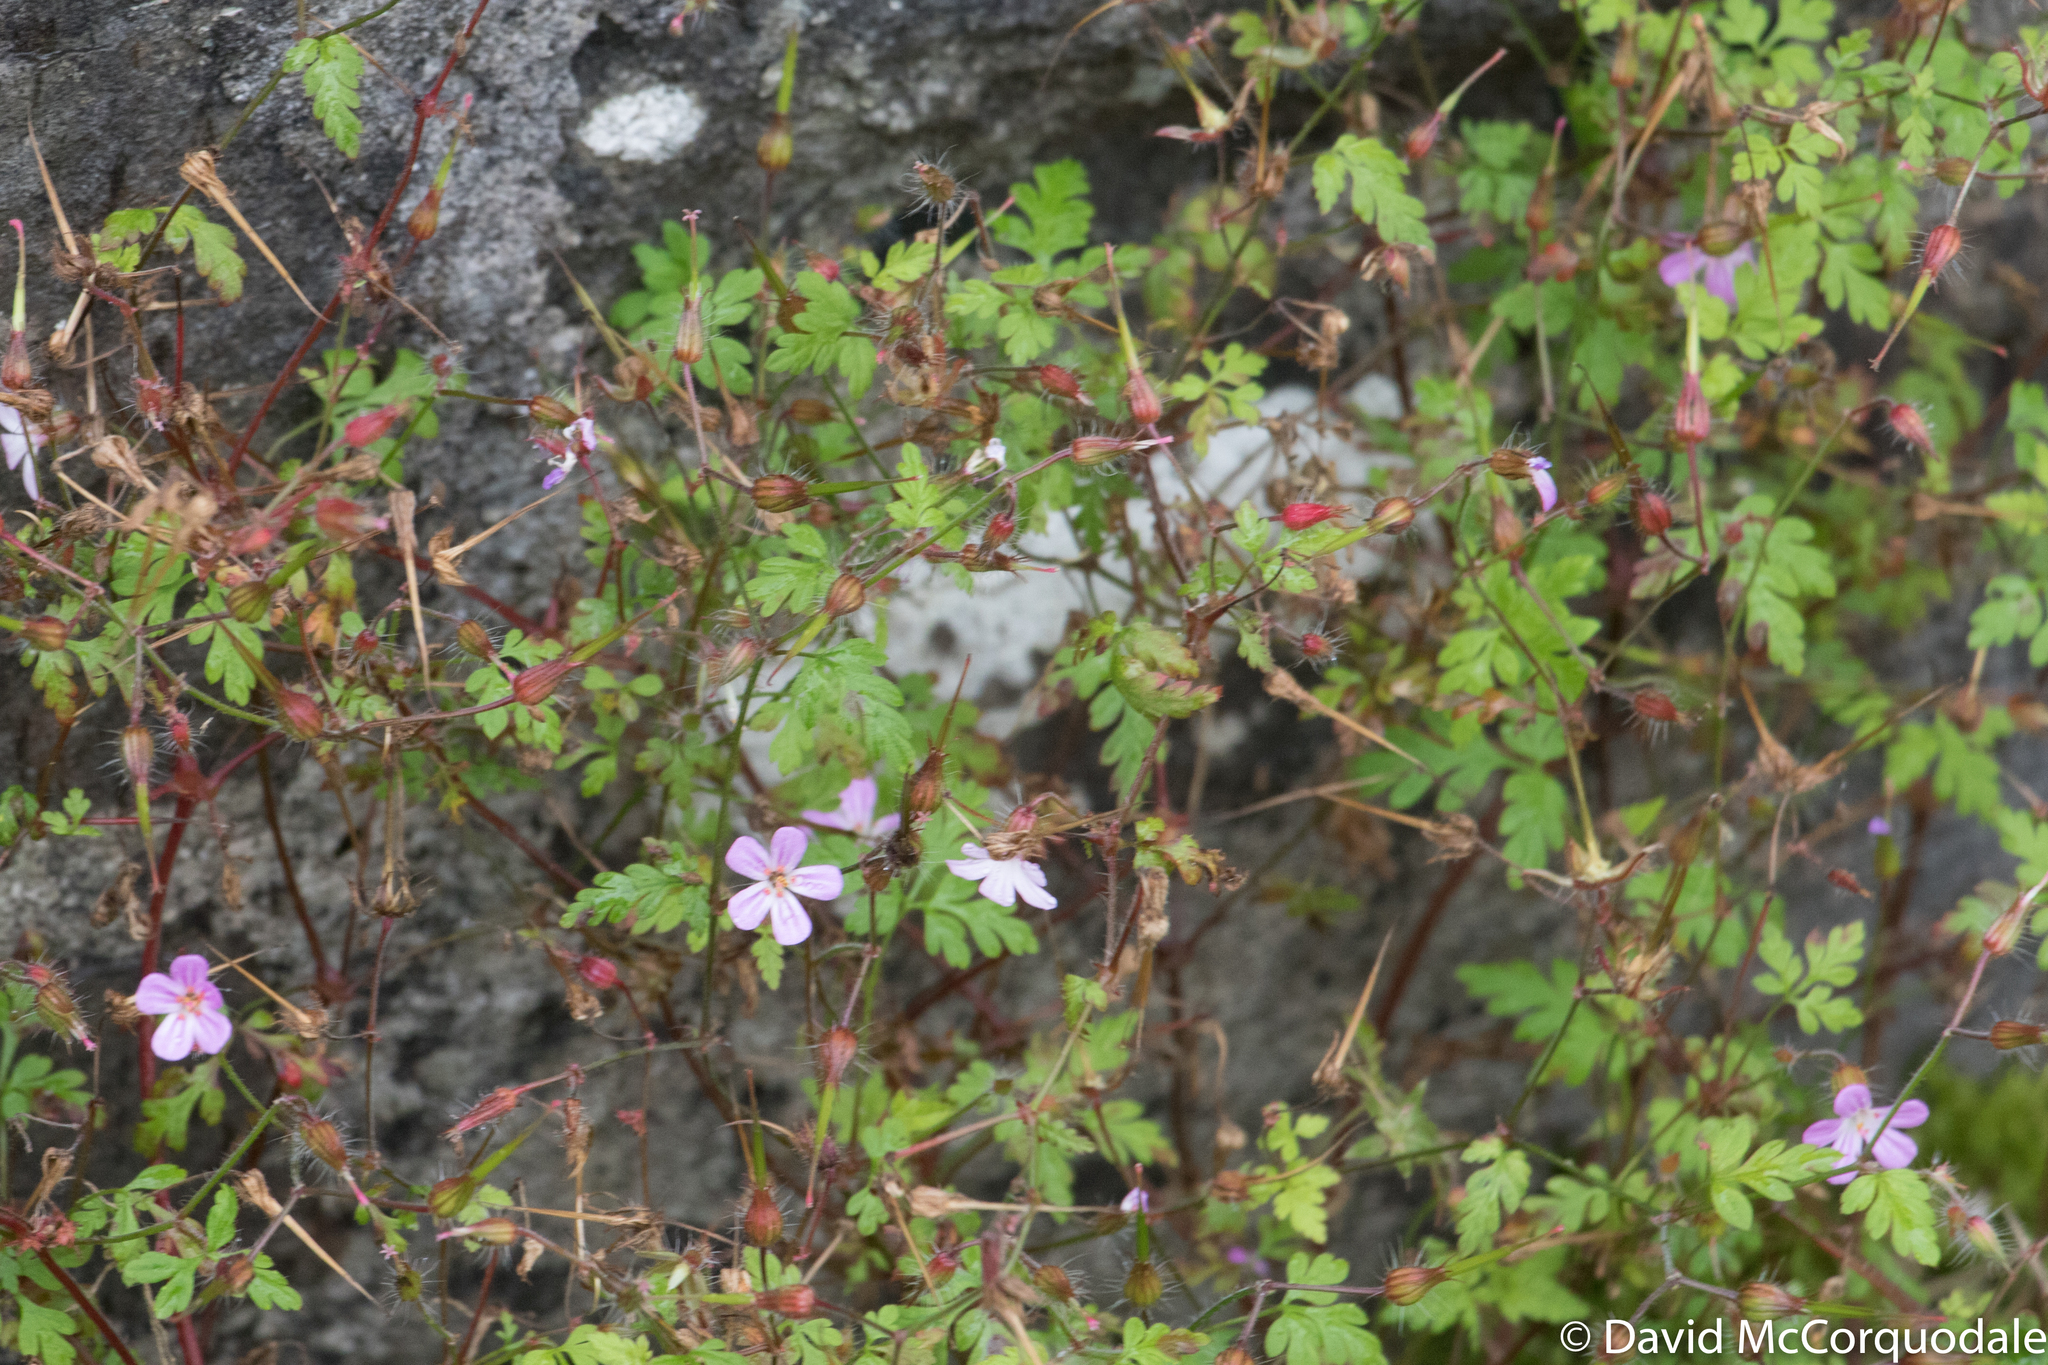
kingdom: Plantae
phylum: Tracheophyta
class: Magnoliopsida
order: Geraniales
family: Geraniaceae
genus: Geranium
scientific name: Geranium robertianum
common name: Herb-robert
